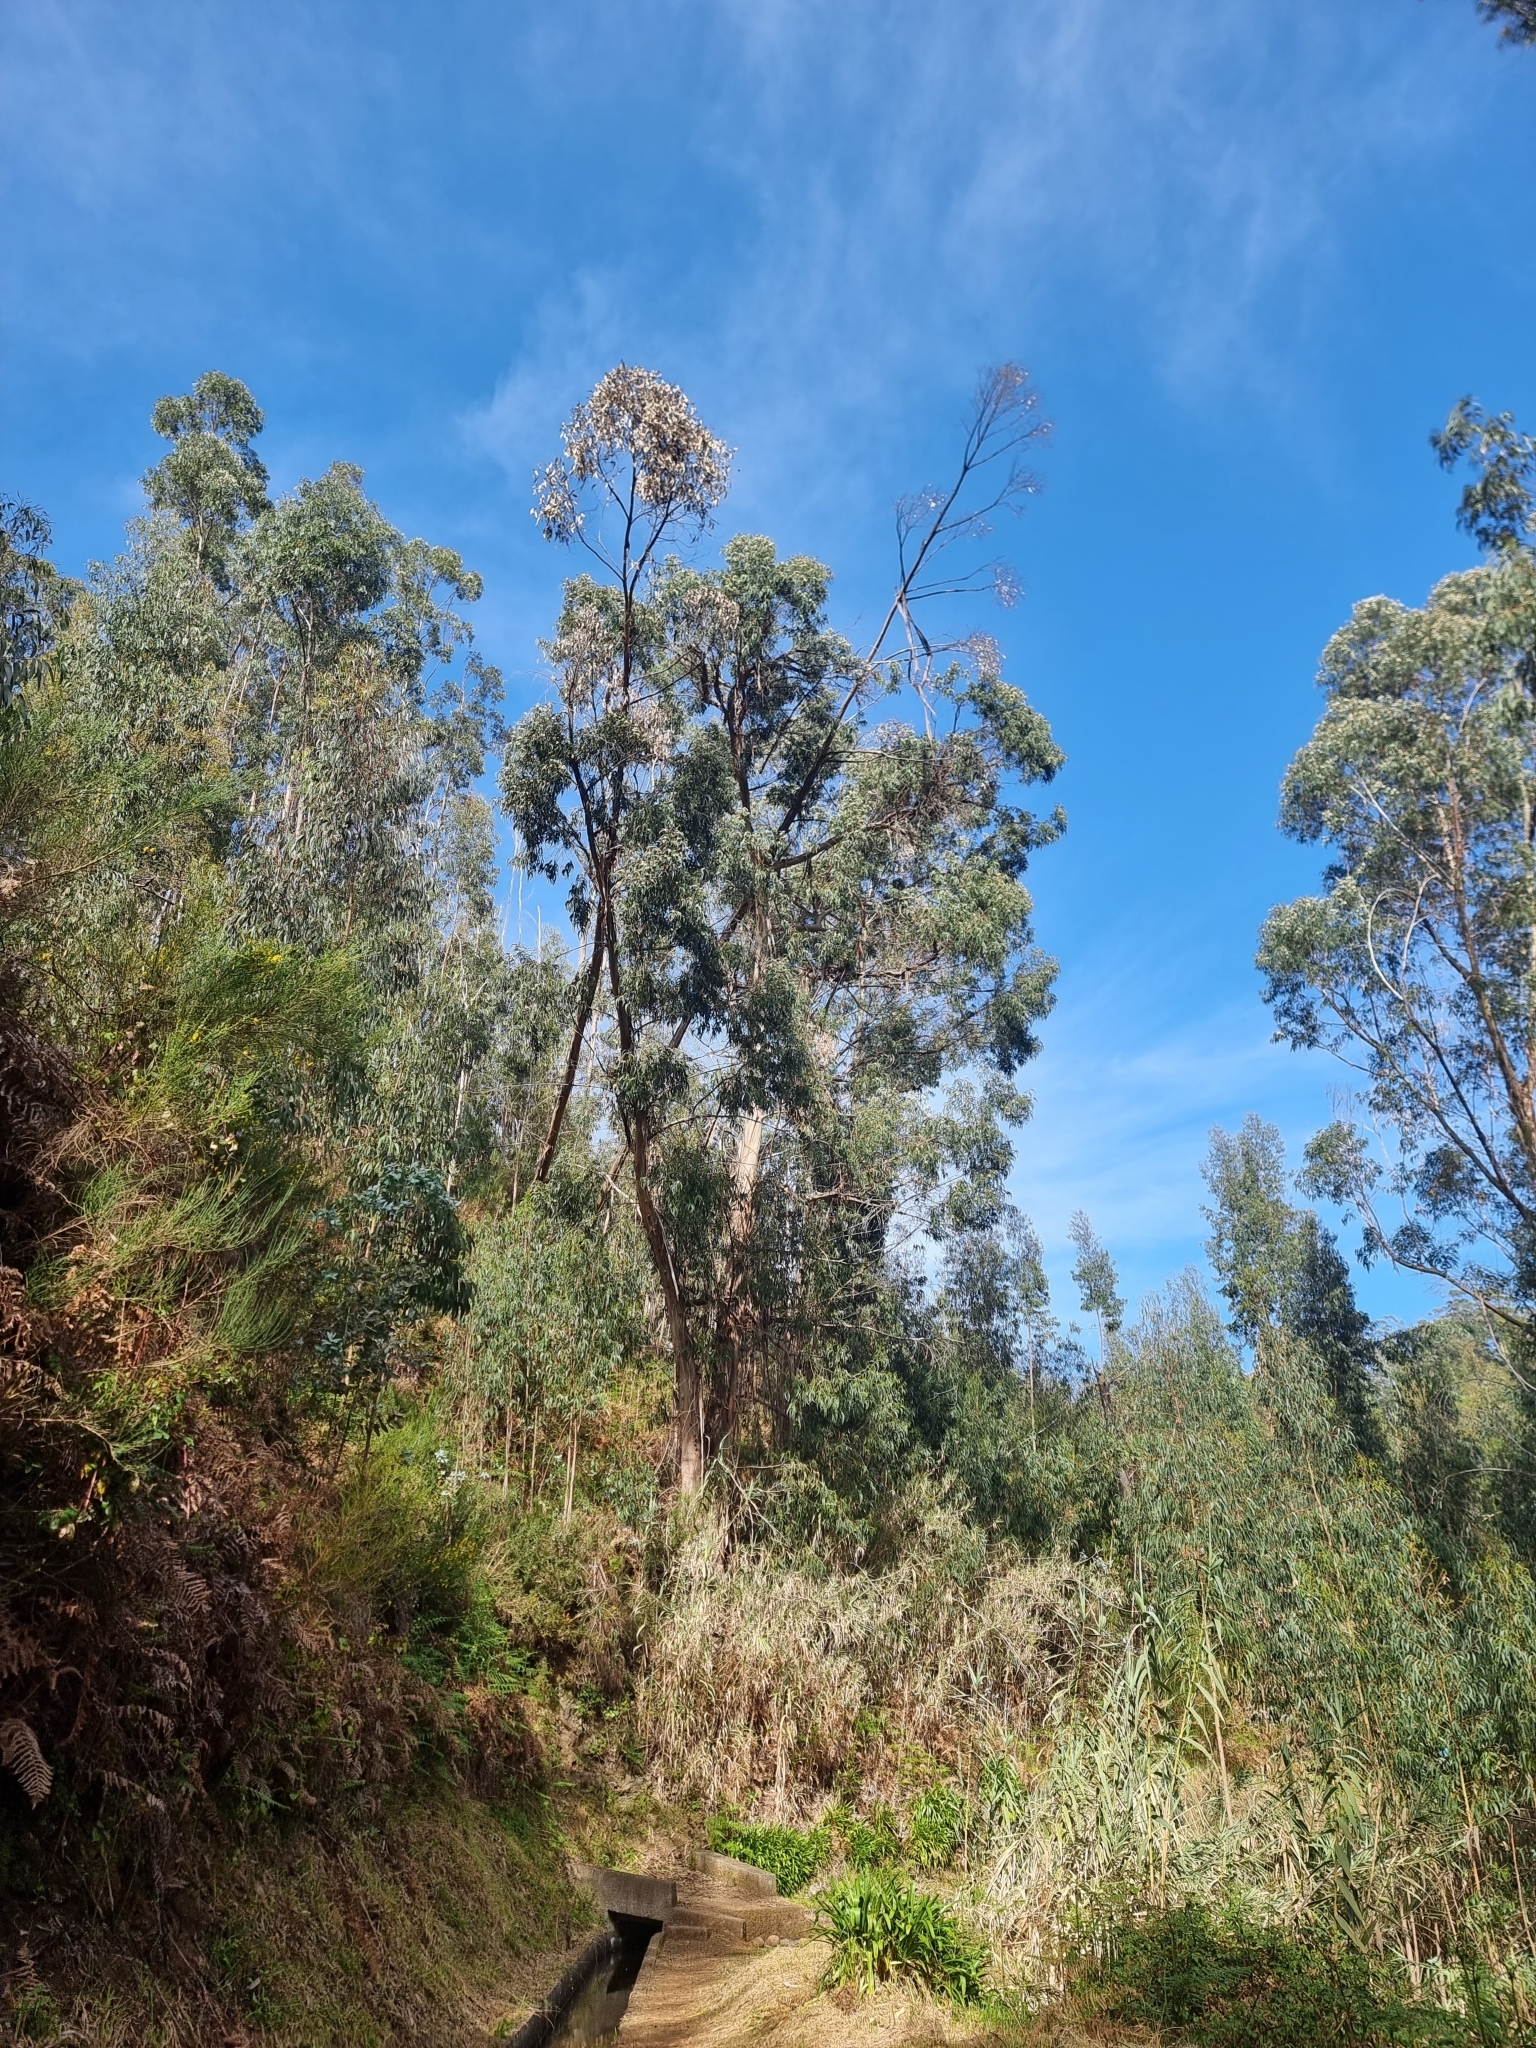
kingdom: Plantae
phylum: Tracheophyta
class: Magnoliopsida
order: Myrtales
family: Myrtaceae
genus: Eucalyptus
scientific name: Eucalyptus globulus
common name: Southern blue-gum
